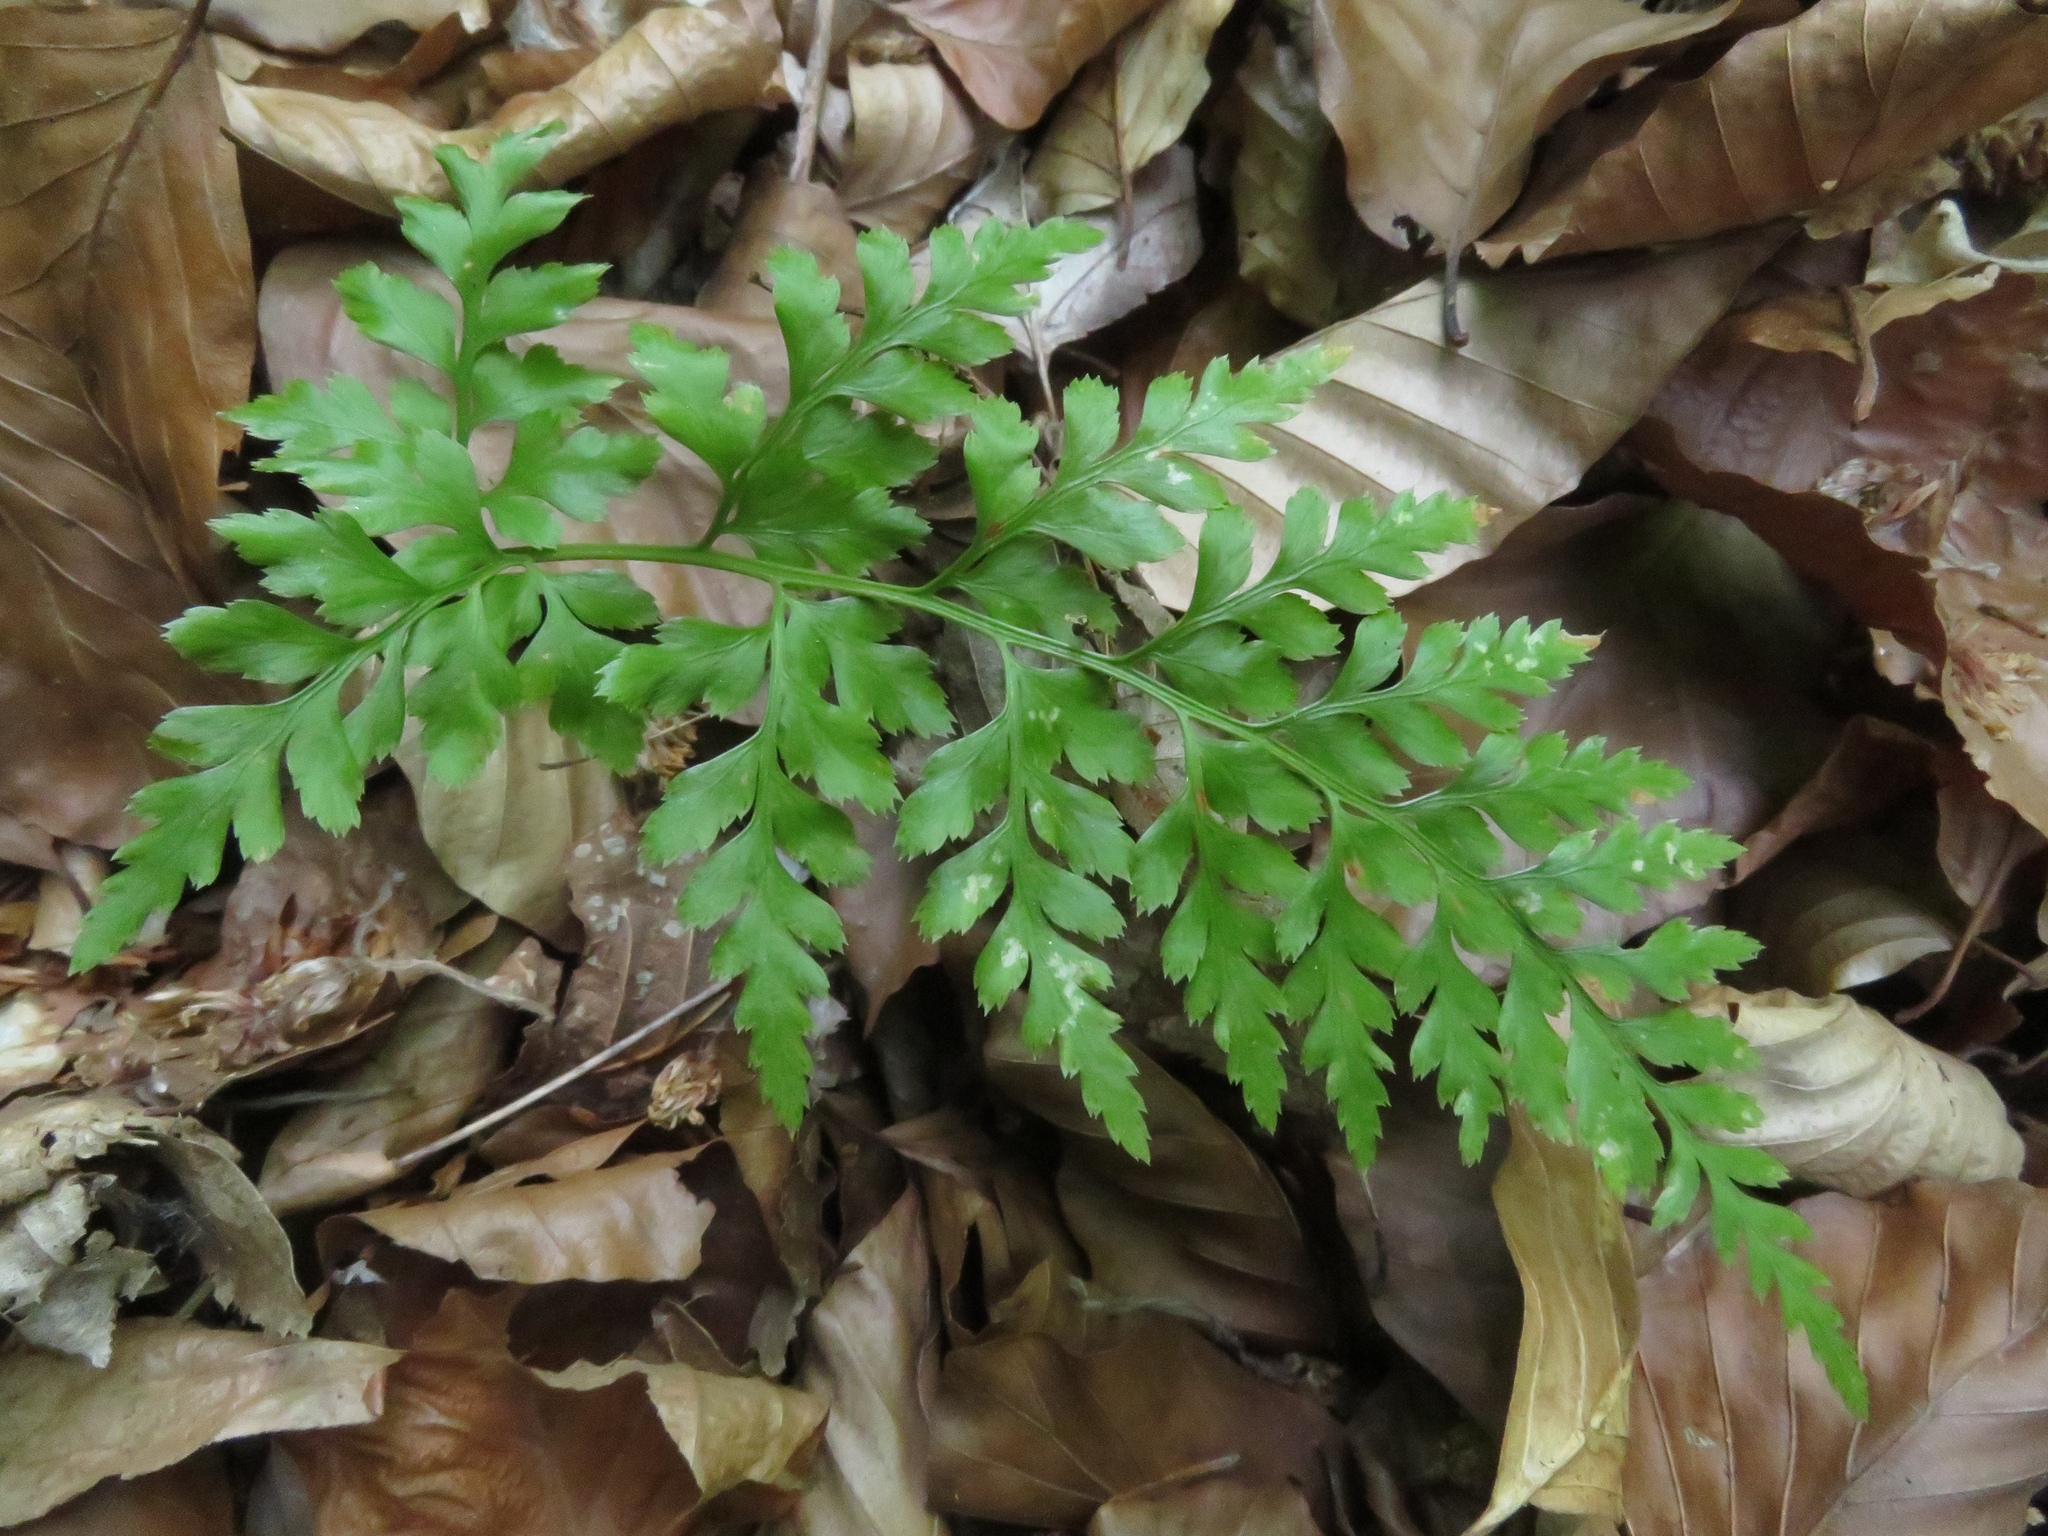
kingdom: Plantae
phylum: Tracheophyta
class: Polypodiopsida
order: Polypodiales
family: Aspleniaceae
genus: Asplenium
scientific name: Asplenium adiantum-nigrum
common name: Black spleenwort
